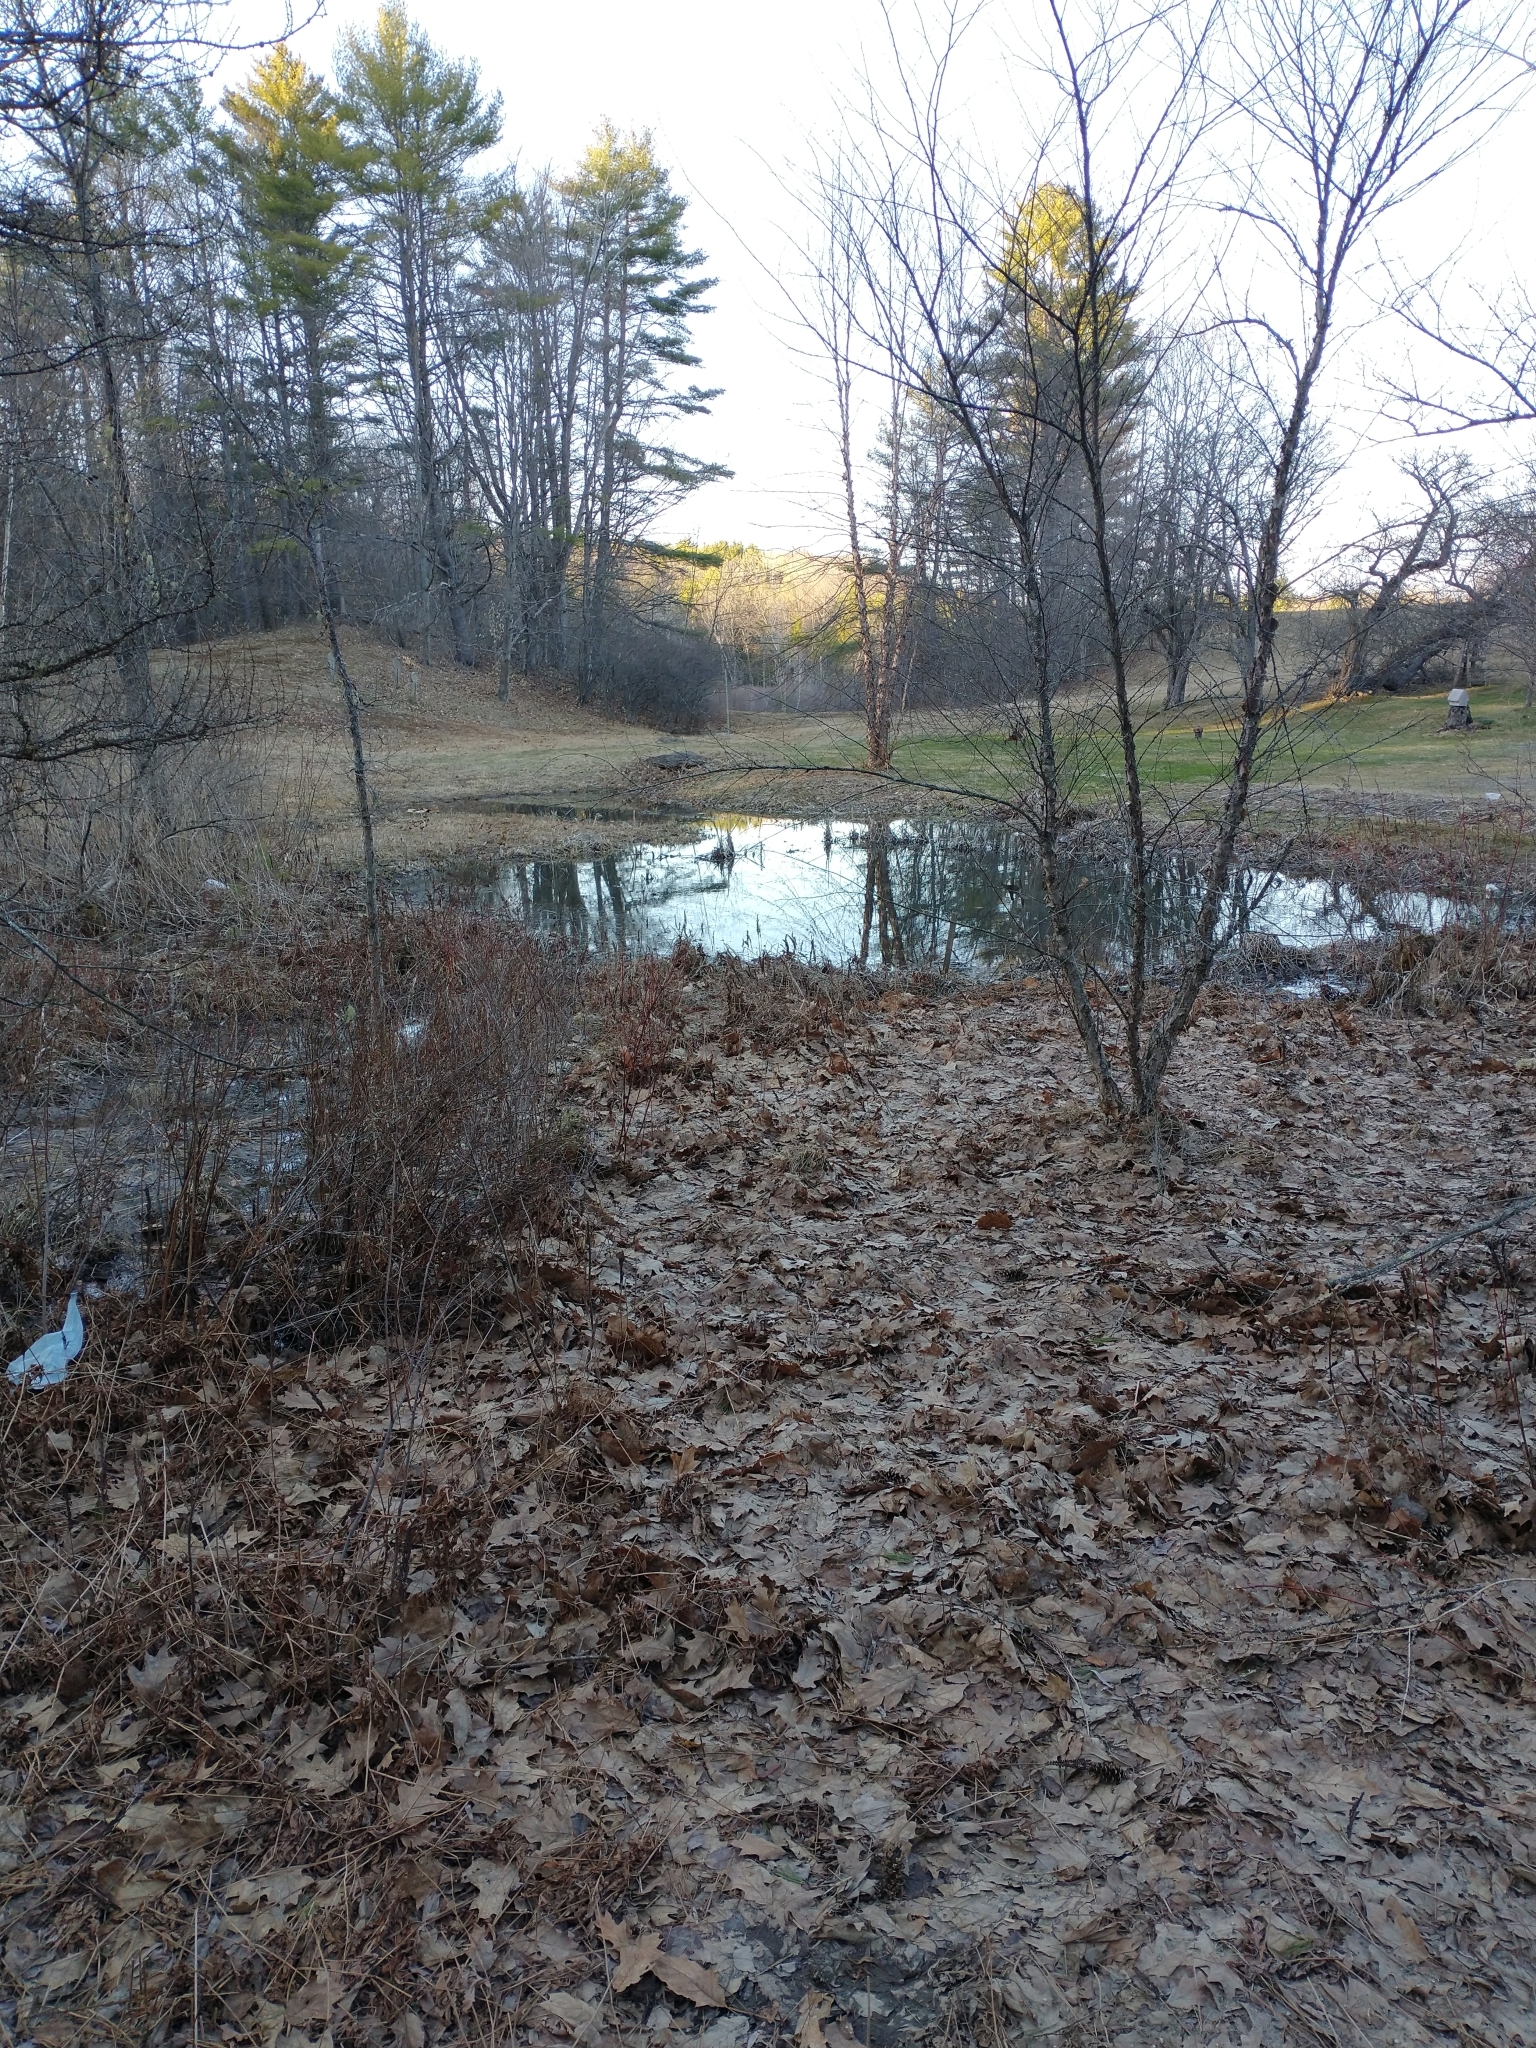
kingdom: Animalia
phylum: Chordata
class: Amphibia
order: Anura
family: Hylidae
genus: Pseudacris
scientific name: Pseudacris crucifer
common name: Spring peeper
